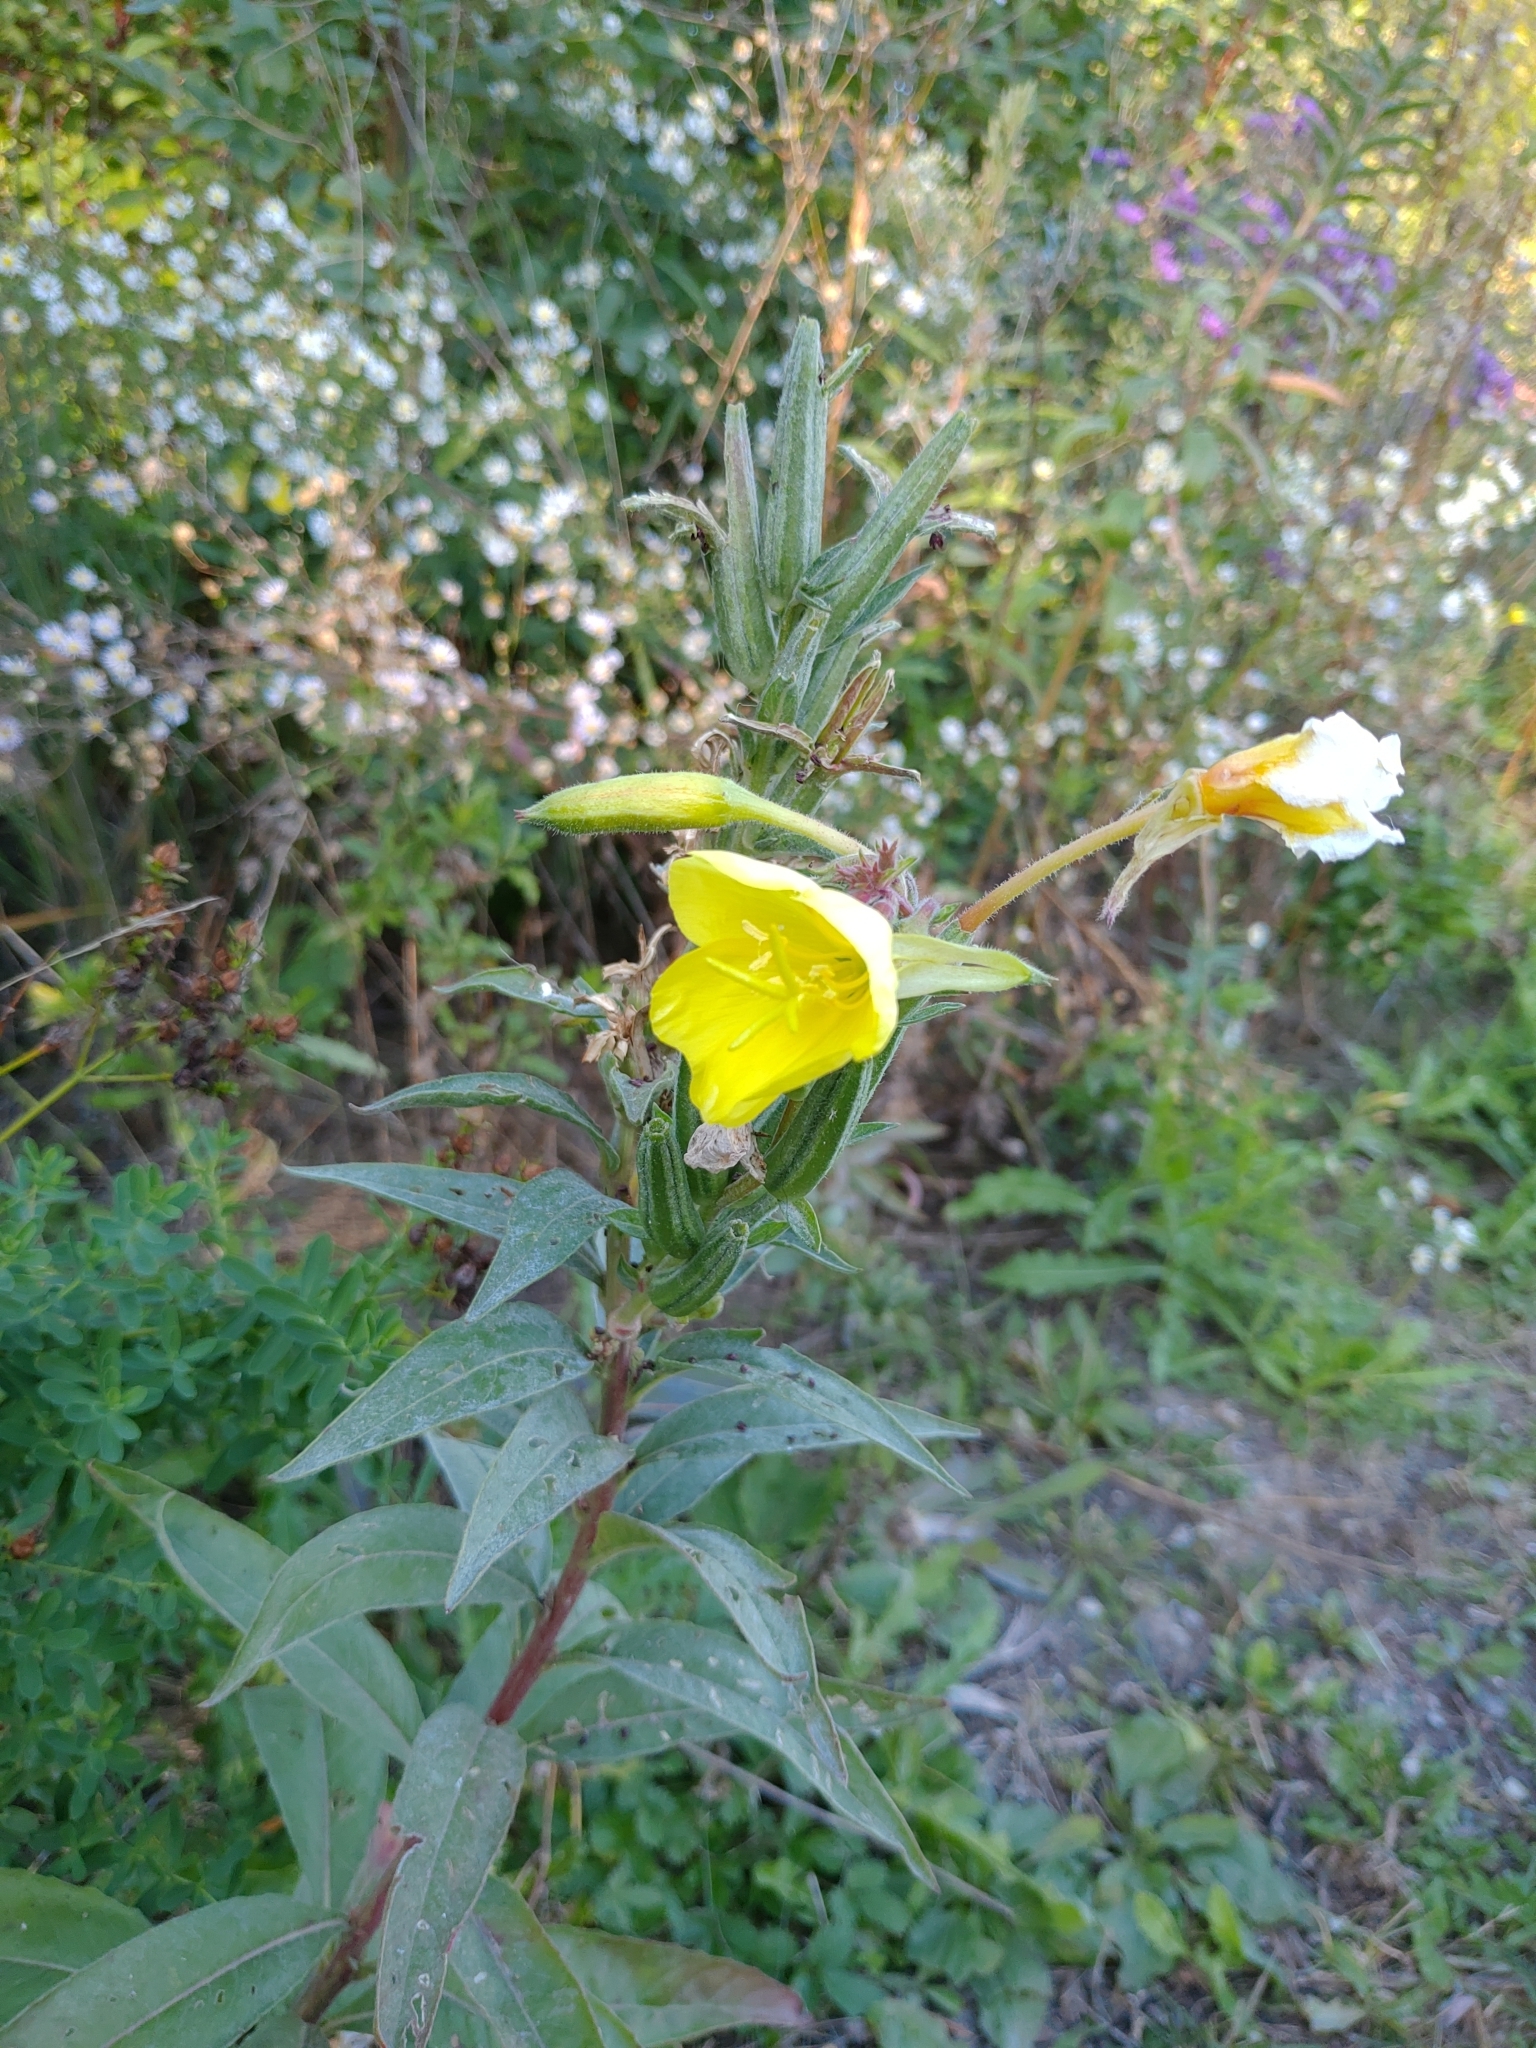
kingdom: Plantae
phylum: Tracheophyta
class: Magnoliopsida
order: Myrtales
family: Onagraceae
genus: Oenothera
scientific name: Oenothera biennis
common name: Common evening-primrose
